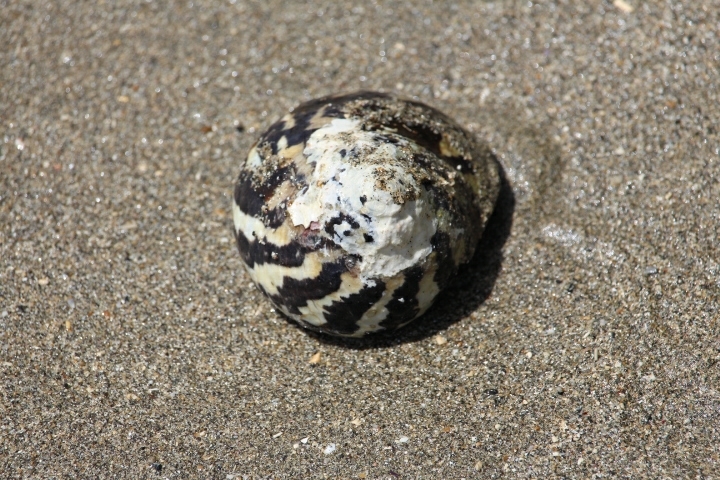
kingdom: Animalia
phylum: Mollusca
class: Gastropoda
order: Trochida
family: Tegulidae
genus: Cittarium
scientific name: Cittarium pica
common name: West indian topshell
